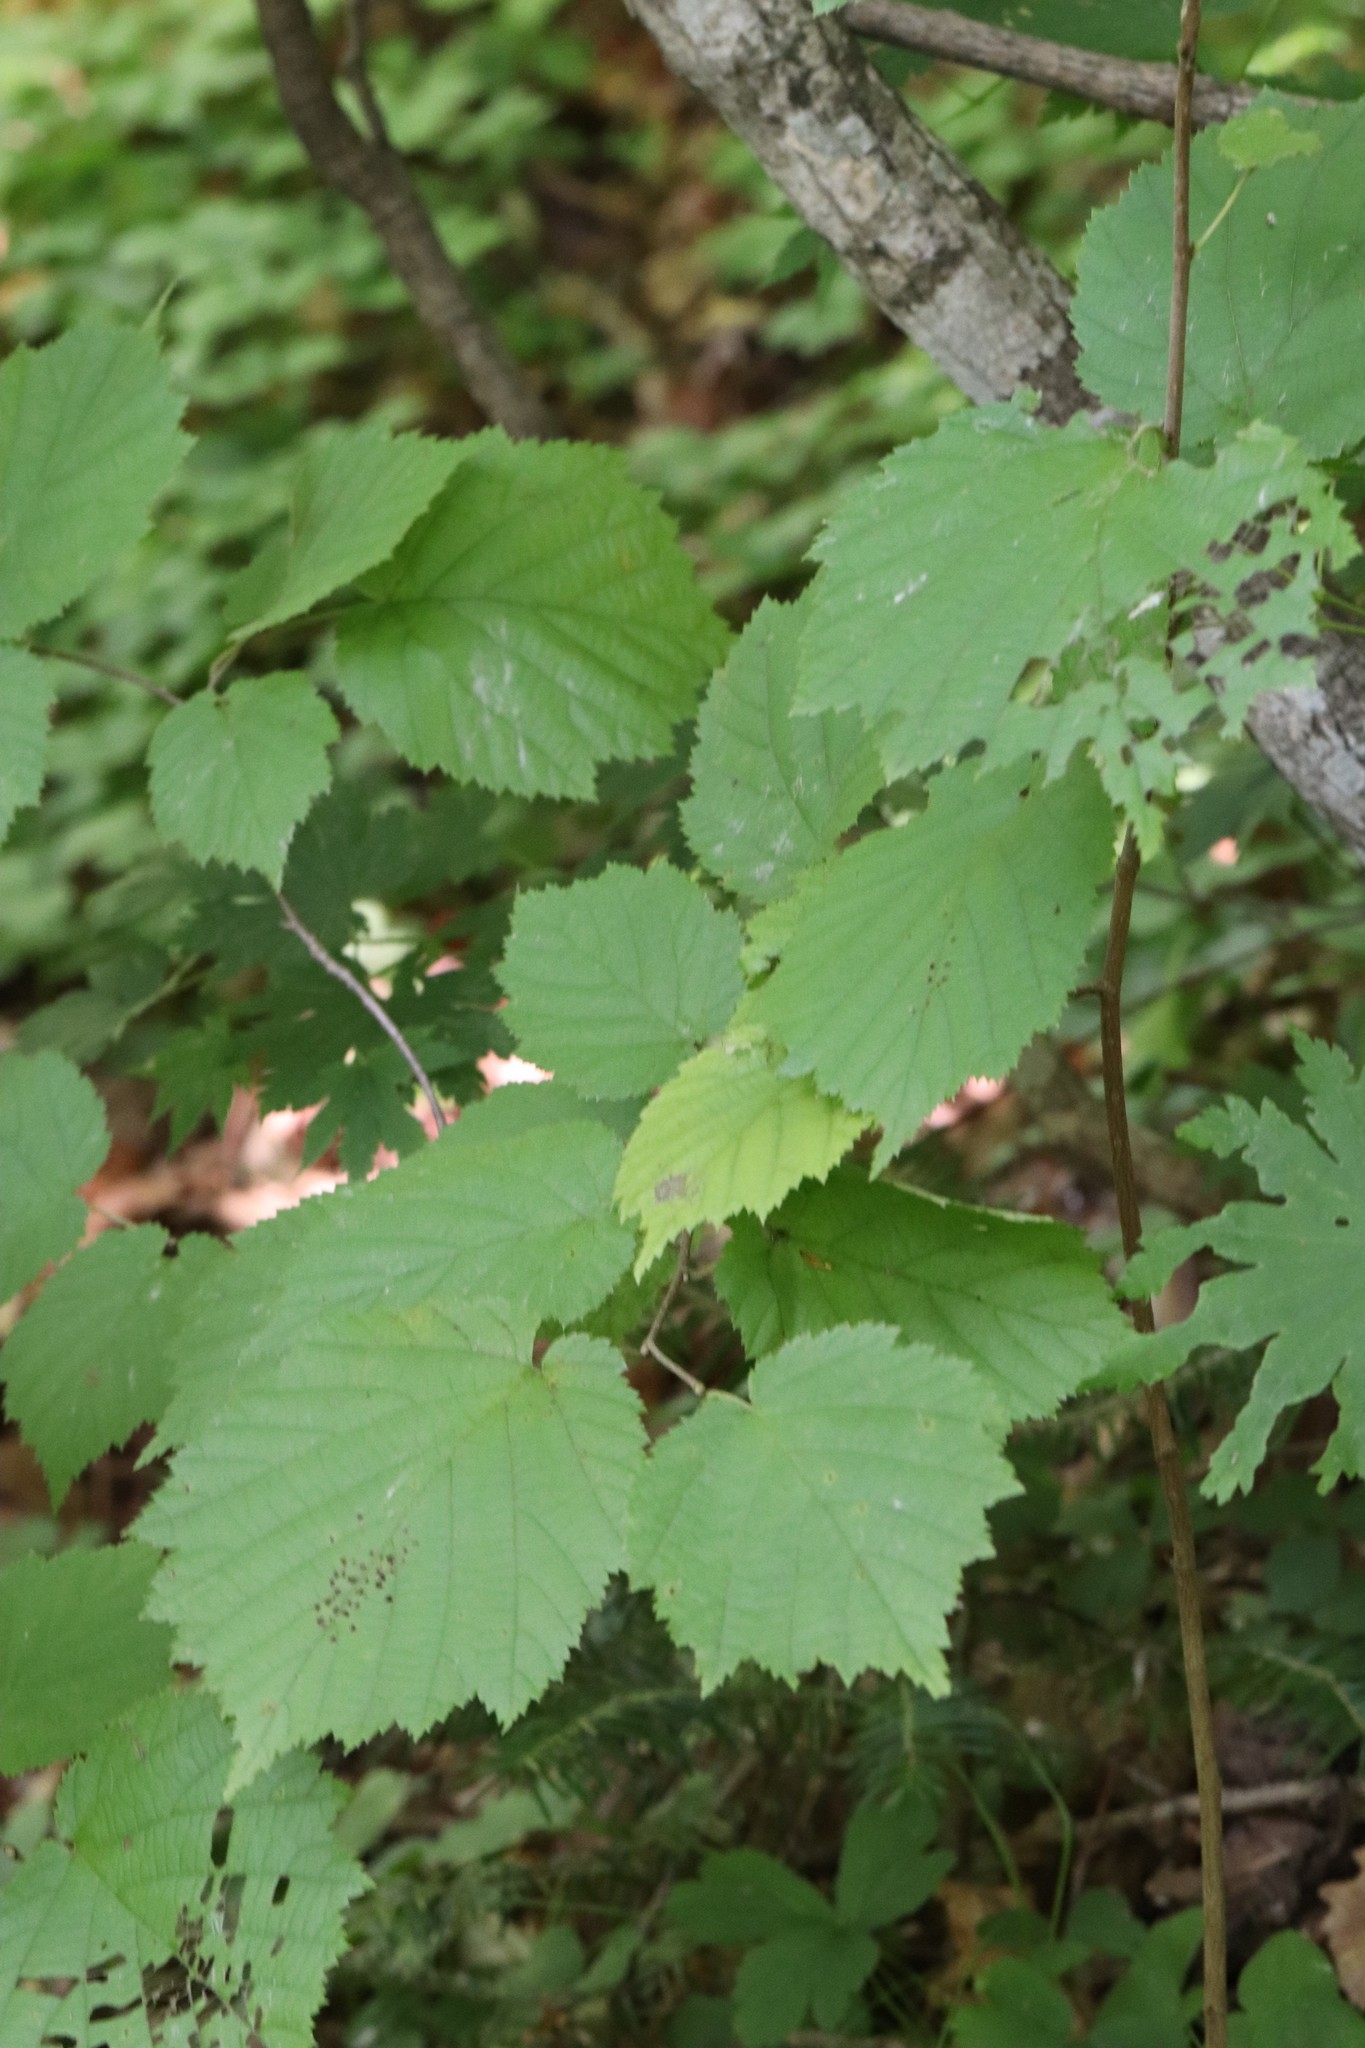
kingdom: Plantae
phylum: Tracheophyta
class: Magnoliopsida
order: Fagales
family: Betulaceae
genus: Corylus
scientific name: Corylus sieboldiana
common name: Japanese hazel
